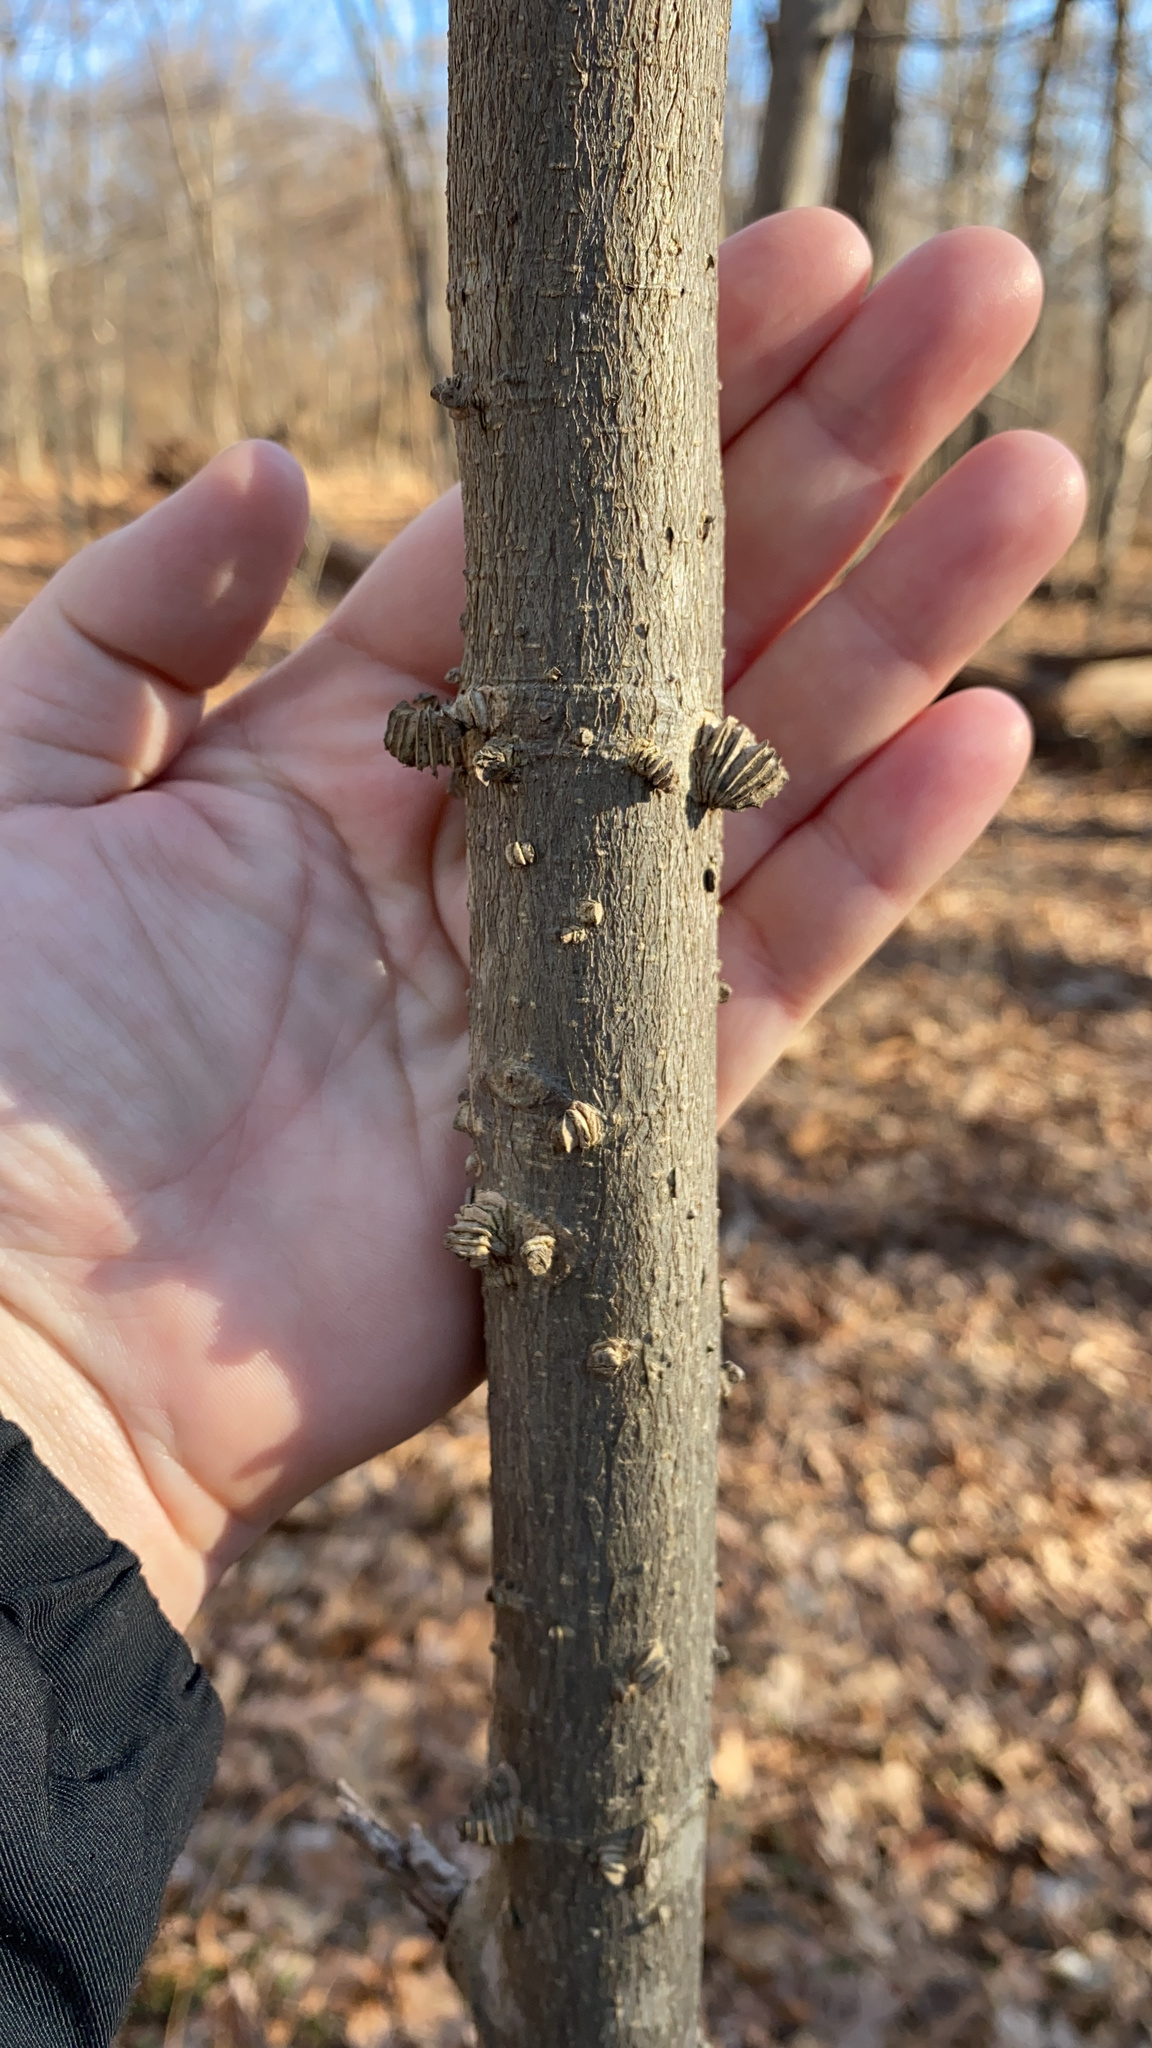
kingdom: Plantae
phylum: Tracheophyta
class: Magnoliopsida
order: Rosales
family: Cannabaceae
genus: Celtis
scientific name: Celtis occidentalis
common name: Common hackberry
